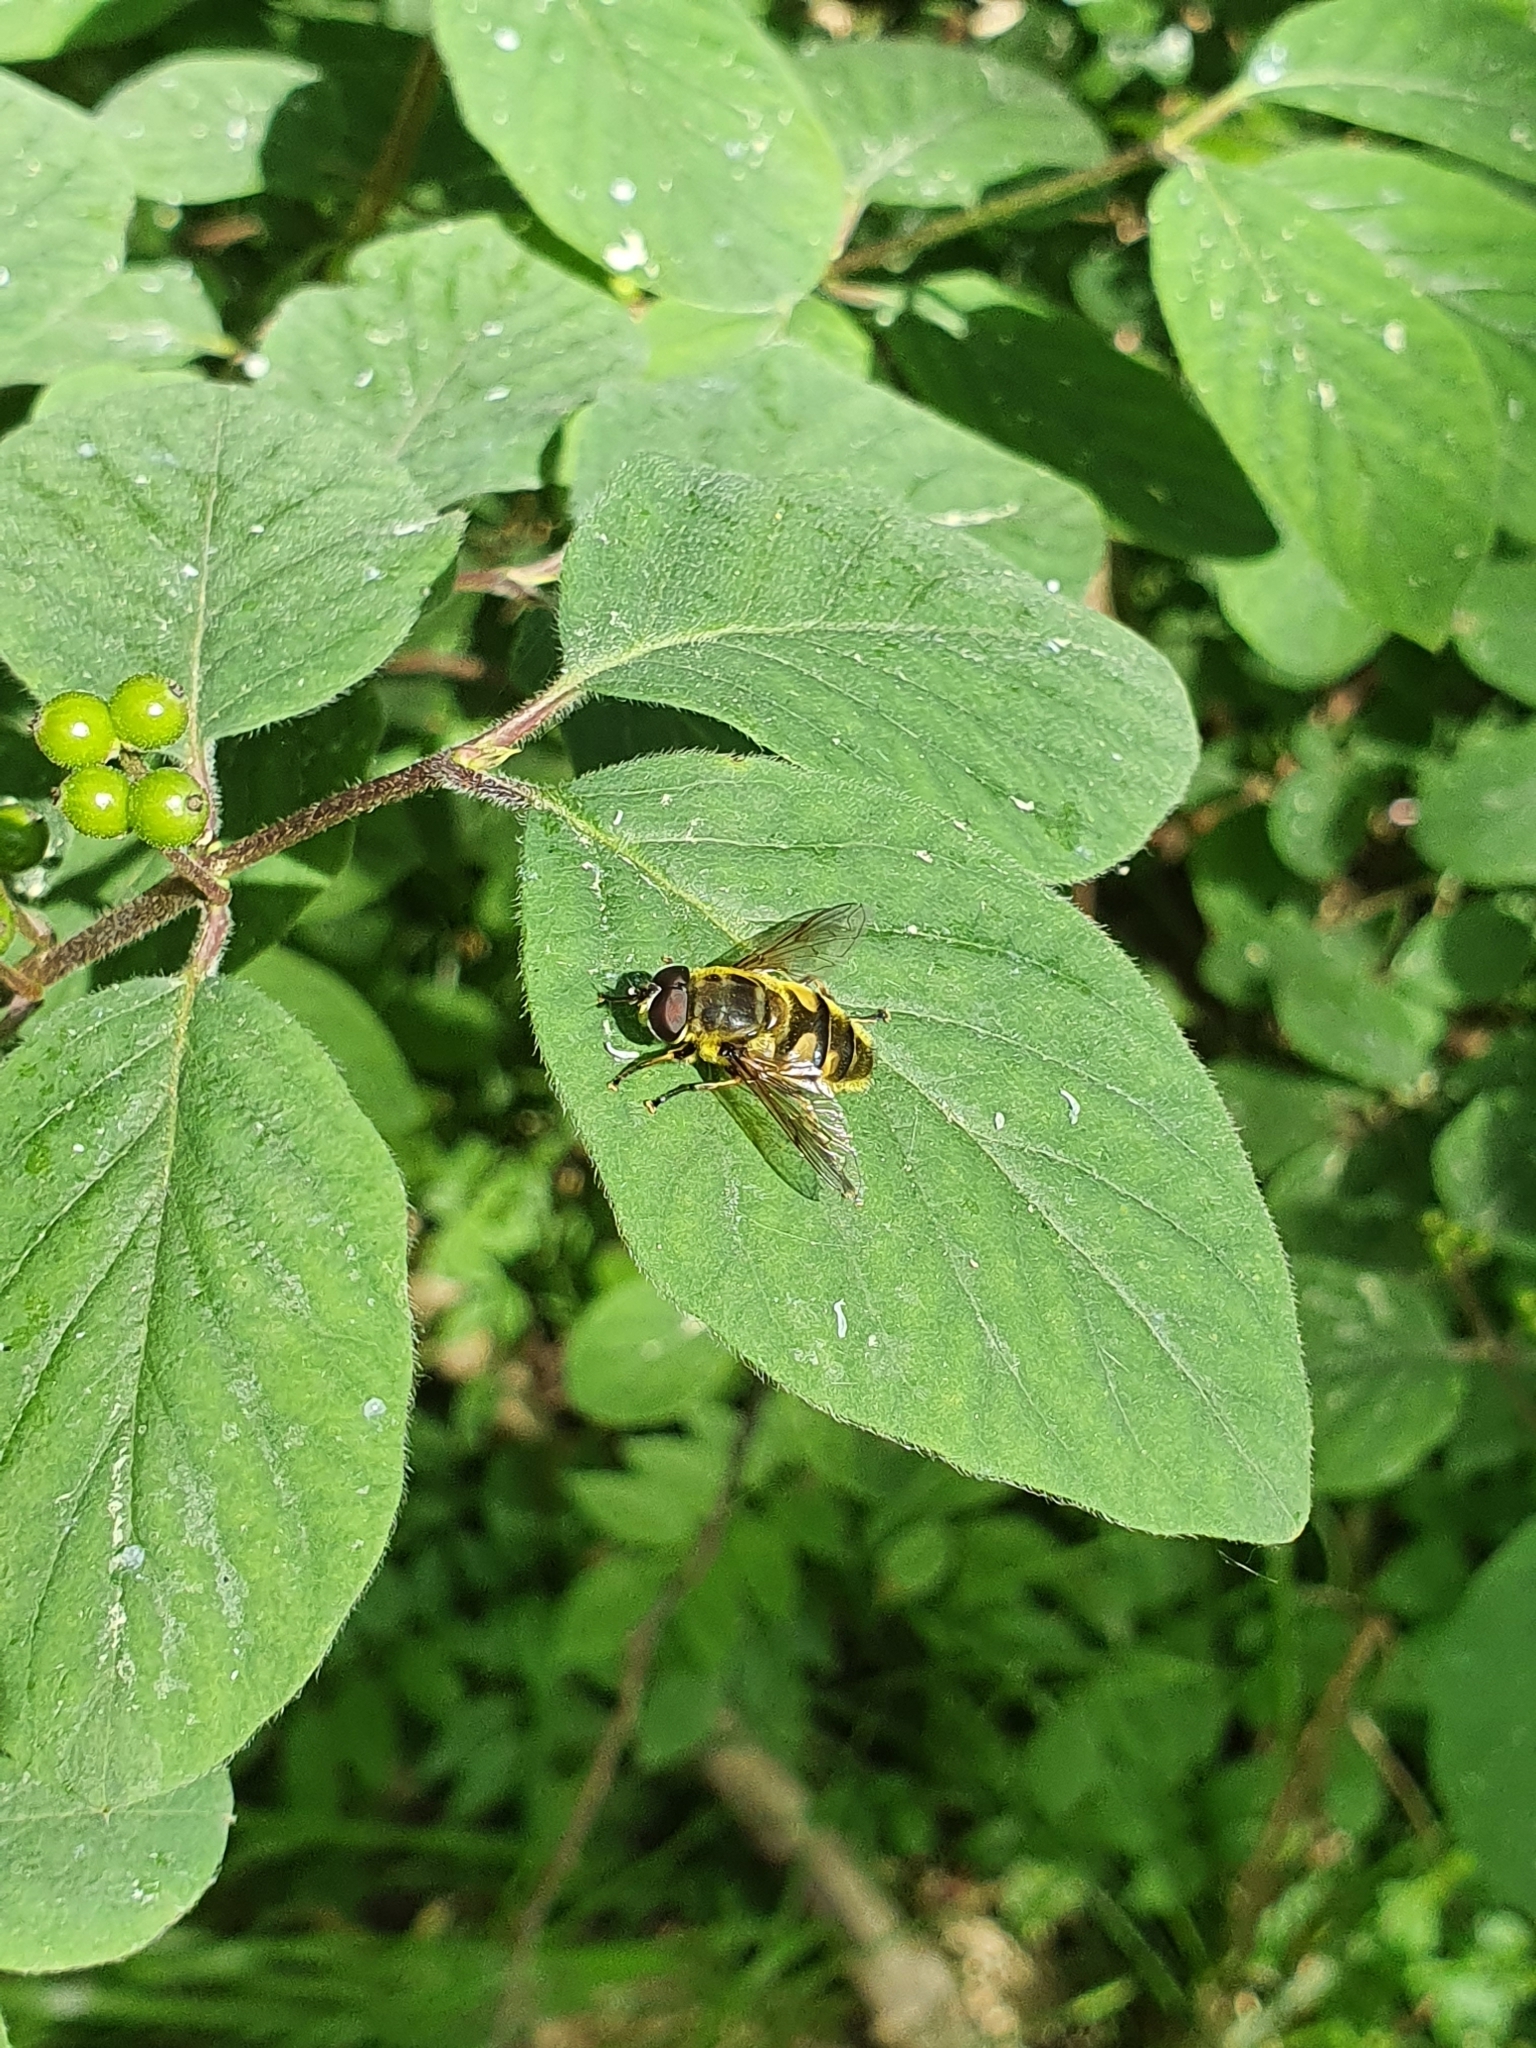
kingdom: Animalia
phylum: Arthropoda
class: Insecta
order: Diptera
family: Syrphidae
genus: Myathropa
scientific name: Myathropa florea
